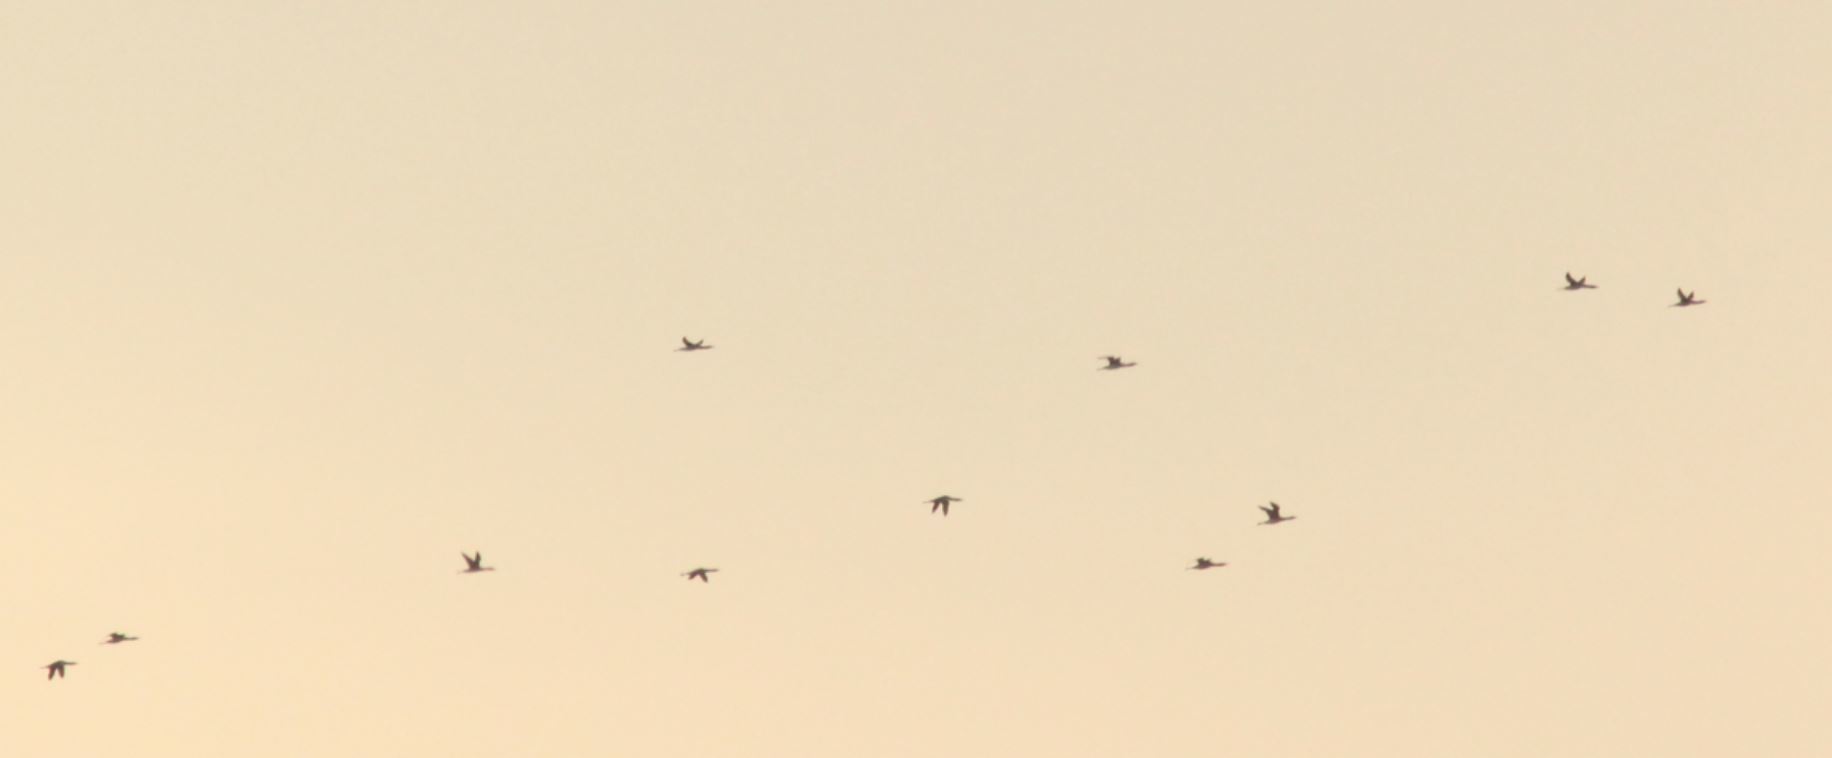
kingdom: Animalia
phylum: Chordata
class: Aves
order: Gaviiformes
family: Gaviidae
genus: Gavia
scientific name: Gavia stellata
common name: Red-throated loon
